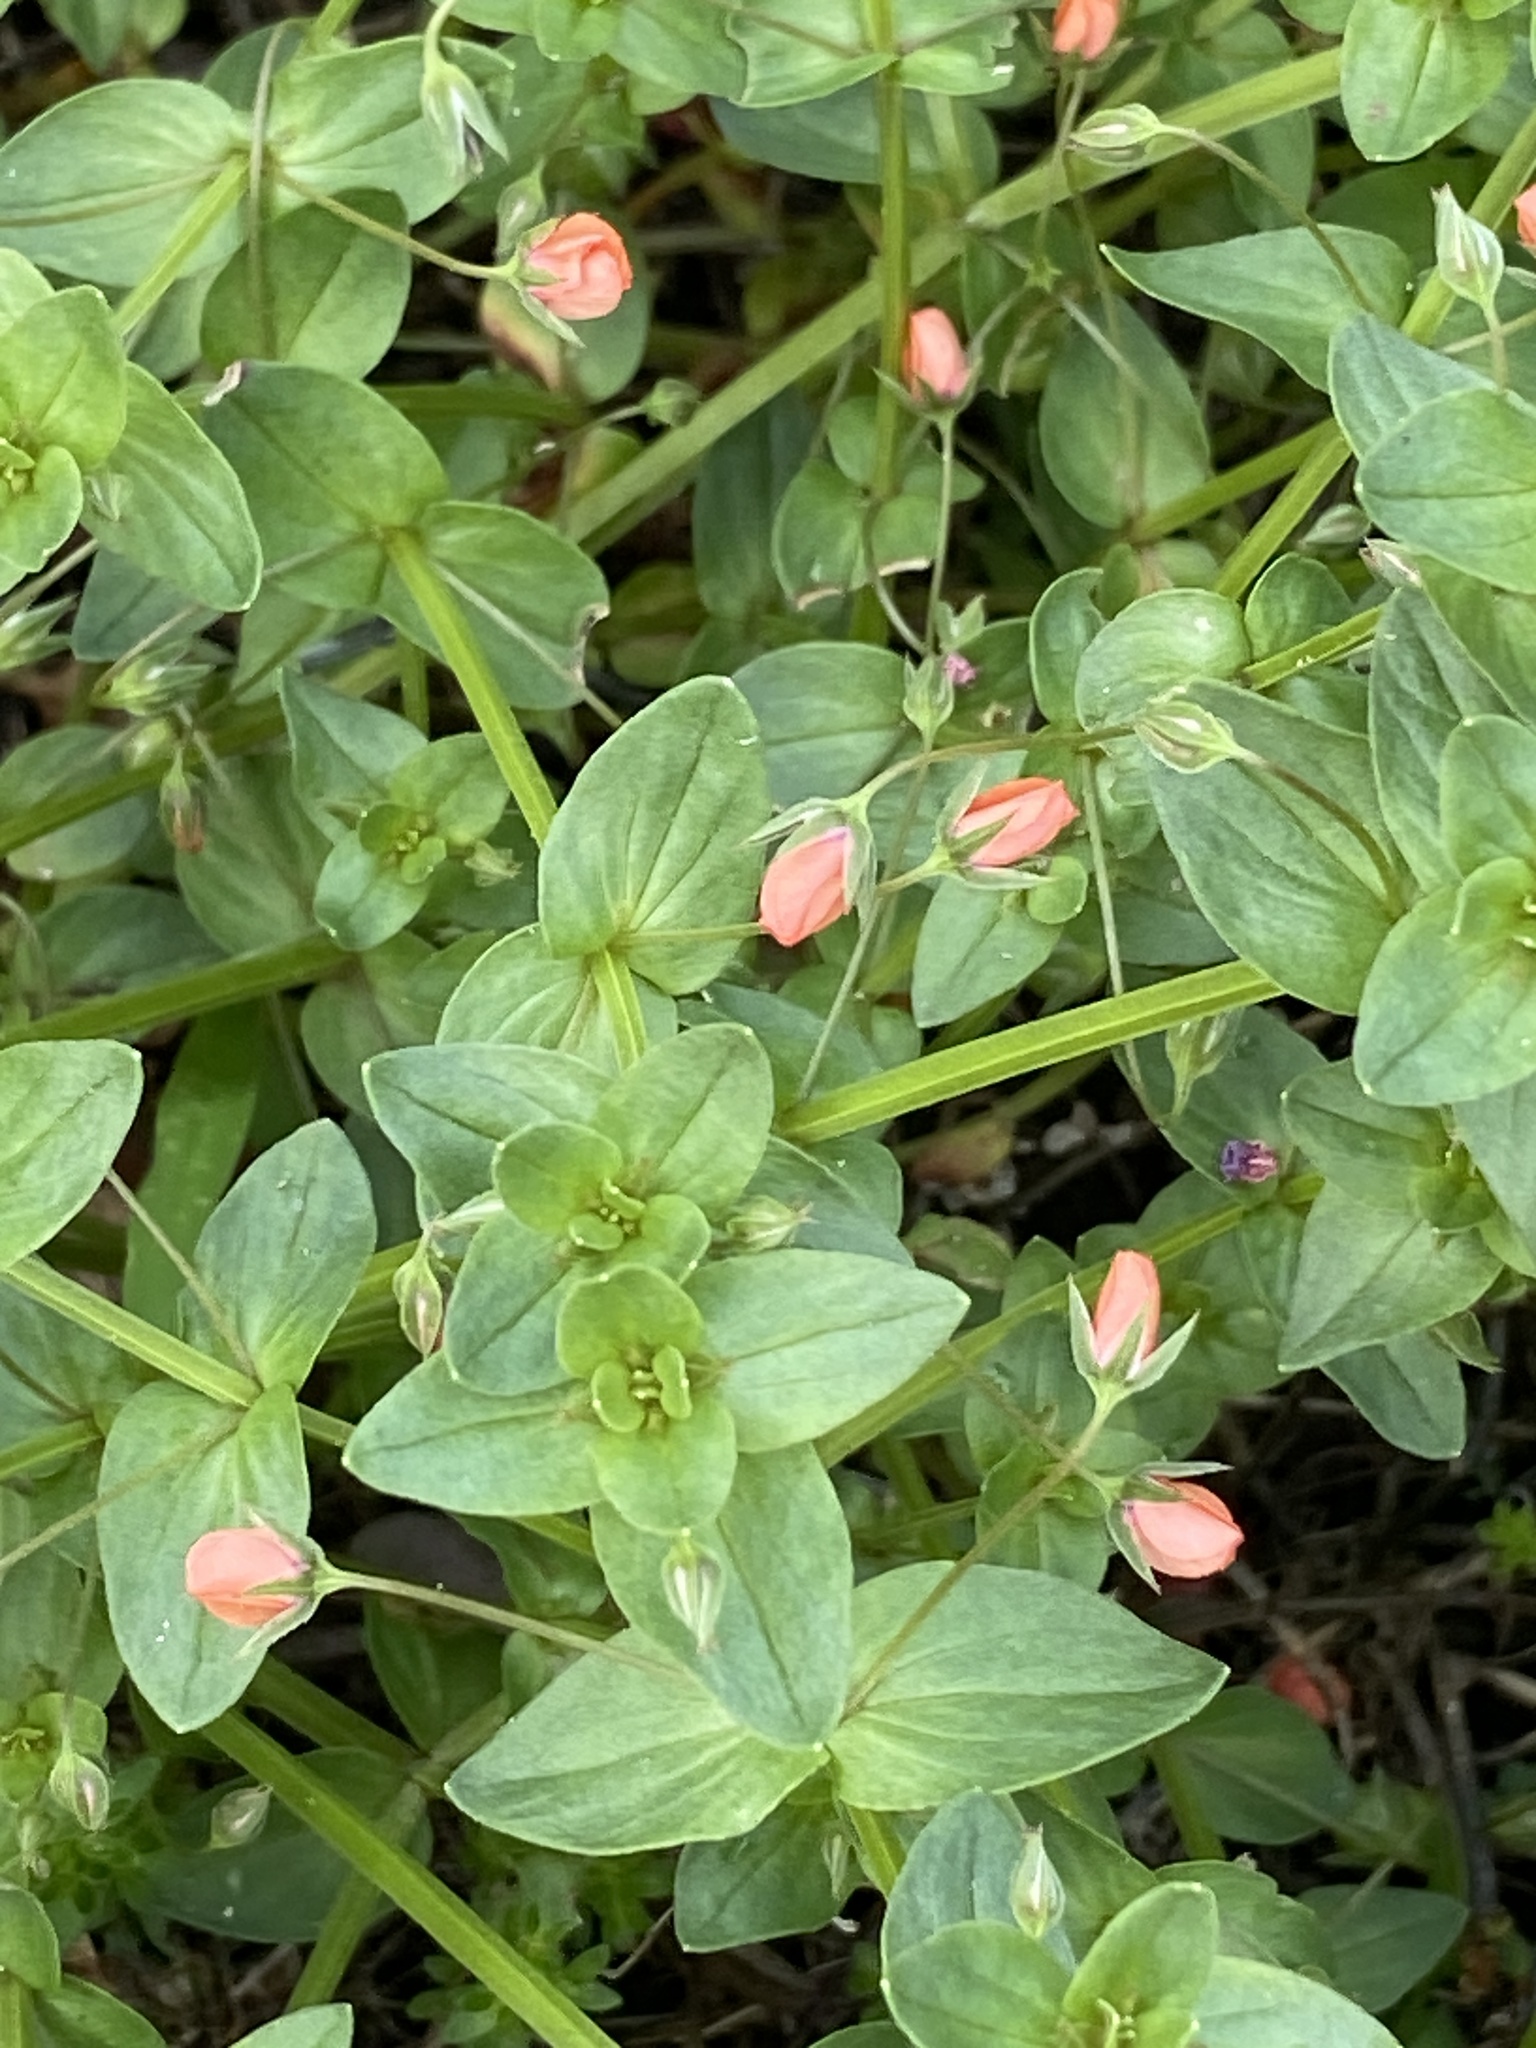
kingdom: Plantae
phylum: Tracheophyta
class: Magnoliopsida
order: Ericales
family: Primulaceae
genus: Lysimachia
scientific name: Lysimachia arvensis
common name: Scarlet pimpernel
